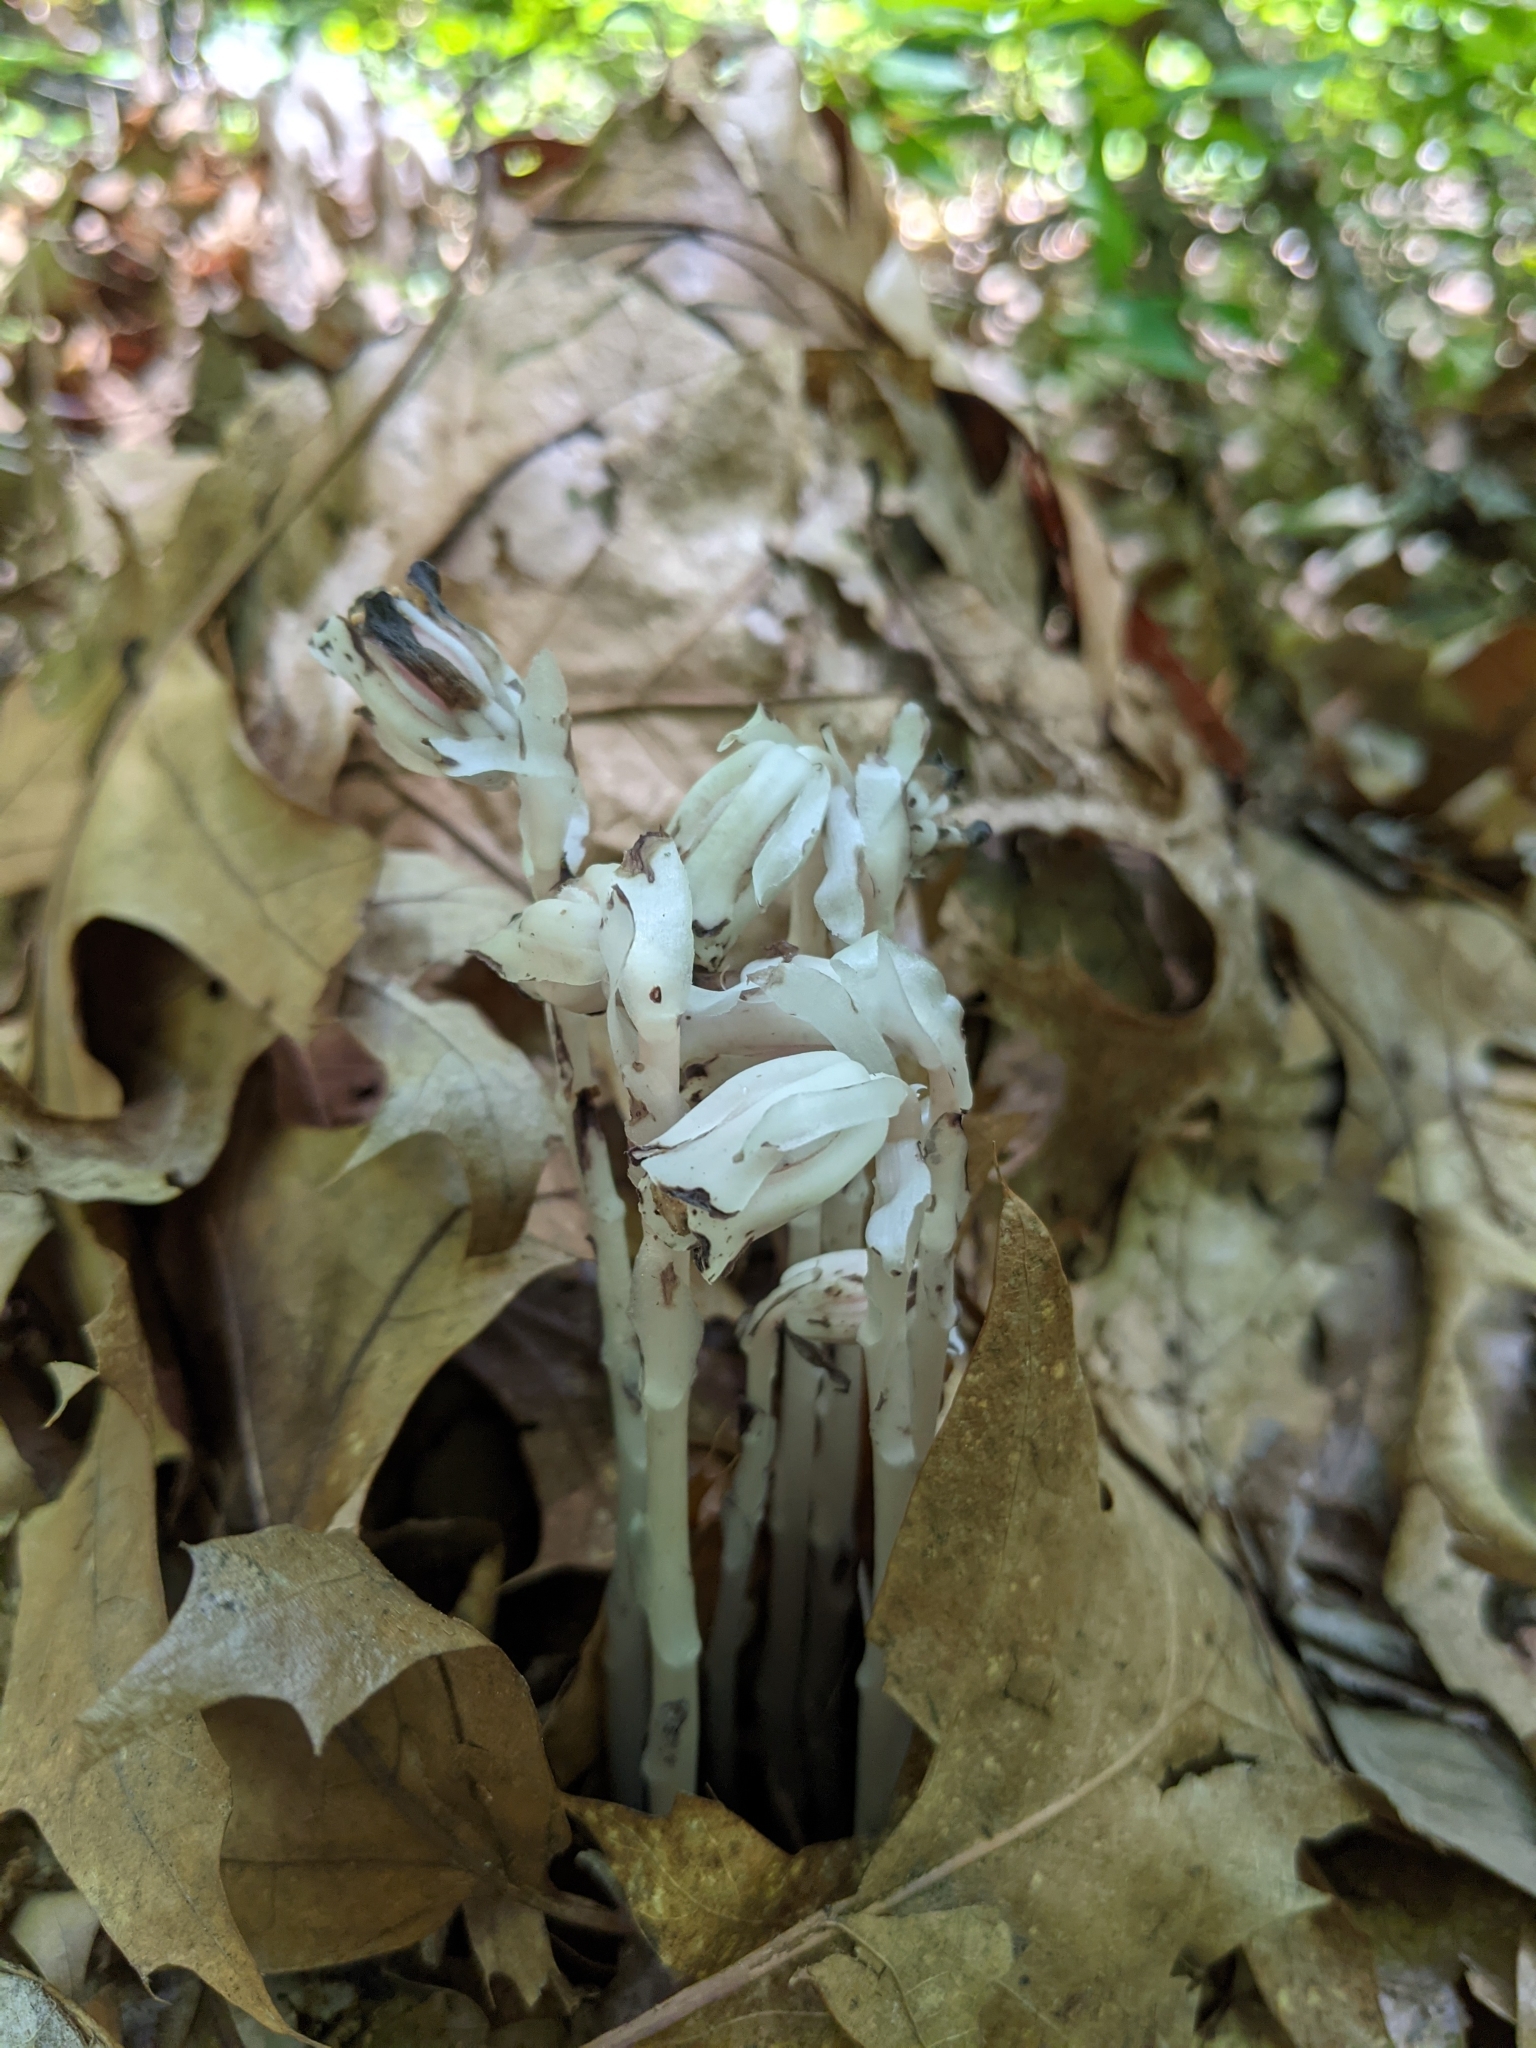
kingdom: Plantae
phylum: Tracheophyta
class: Magnoliopsida
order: Ericales
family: Ericaceae
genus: Monotropa
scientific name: Monotropa uniflora
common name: Convulsion root
